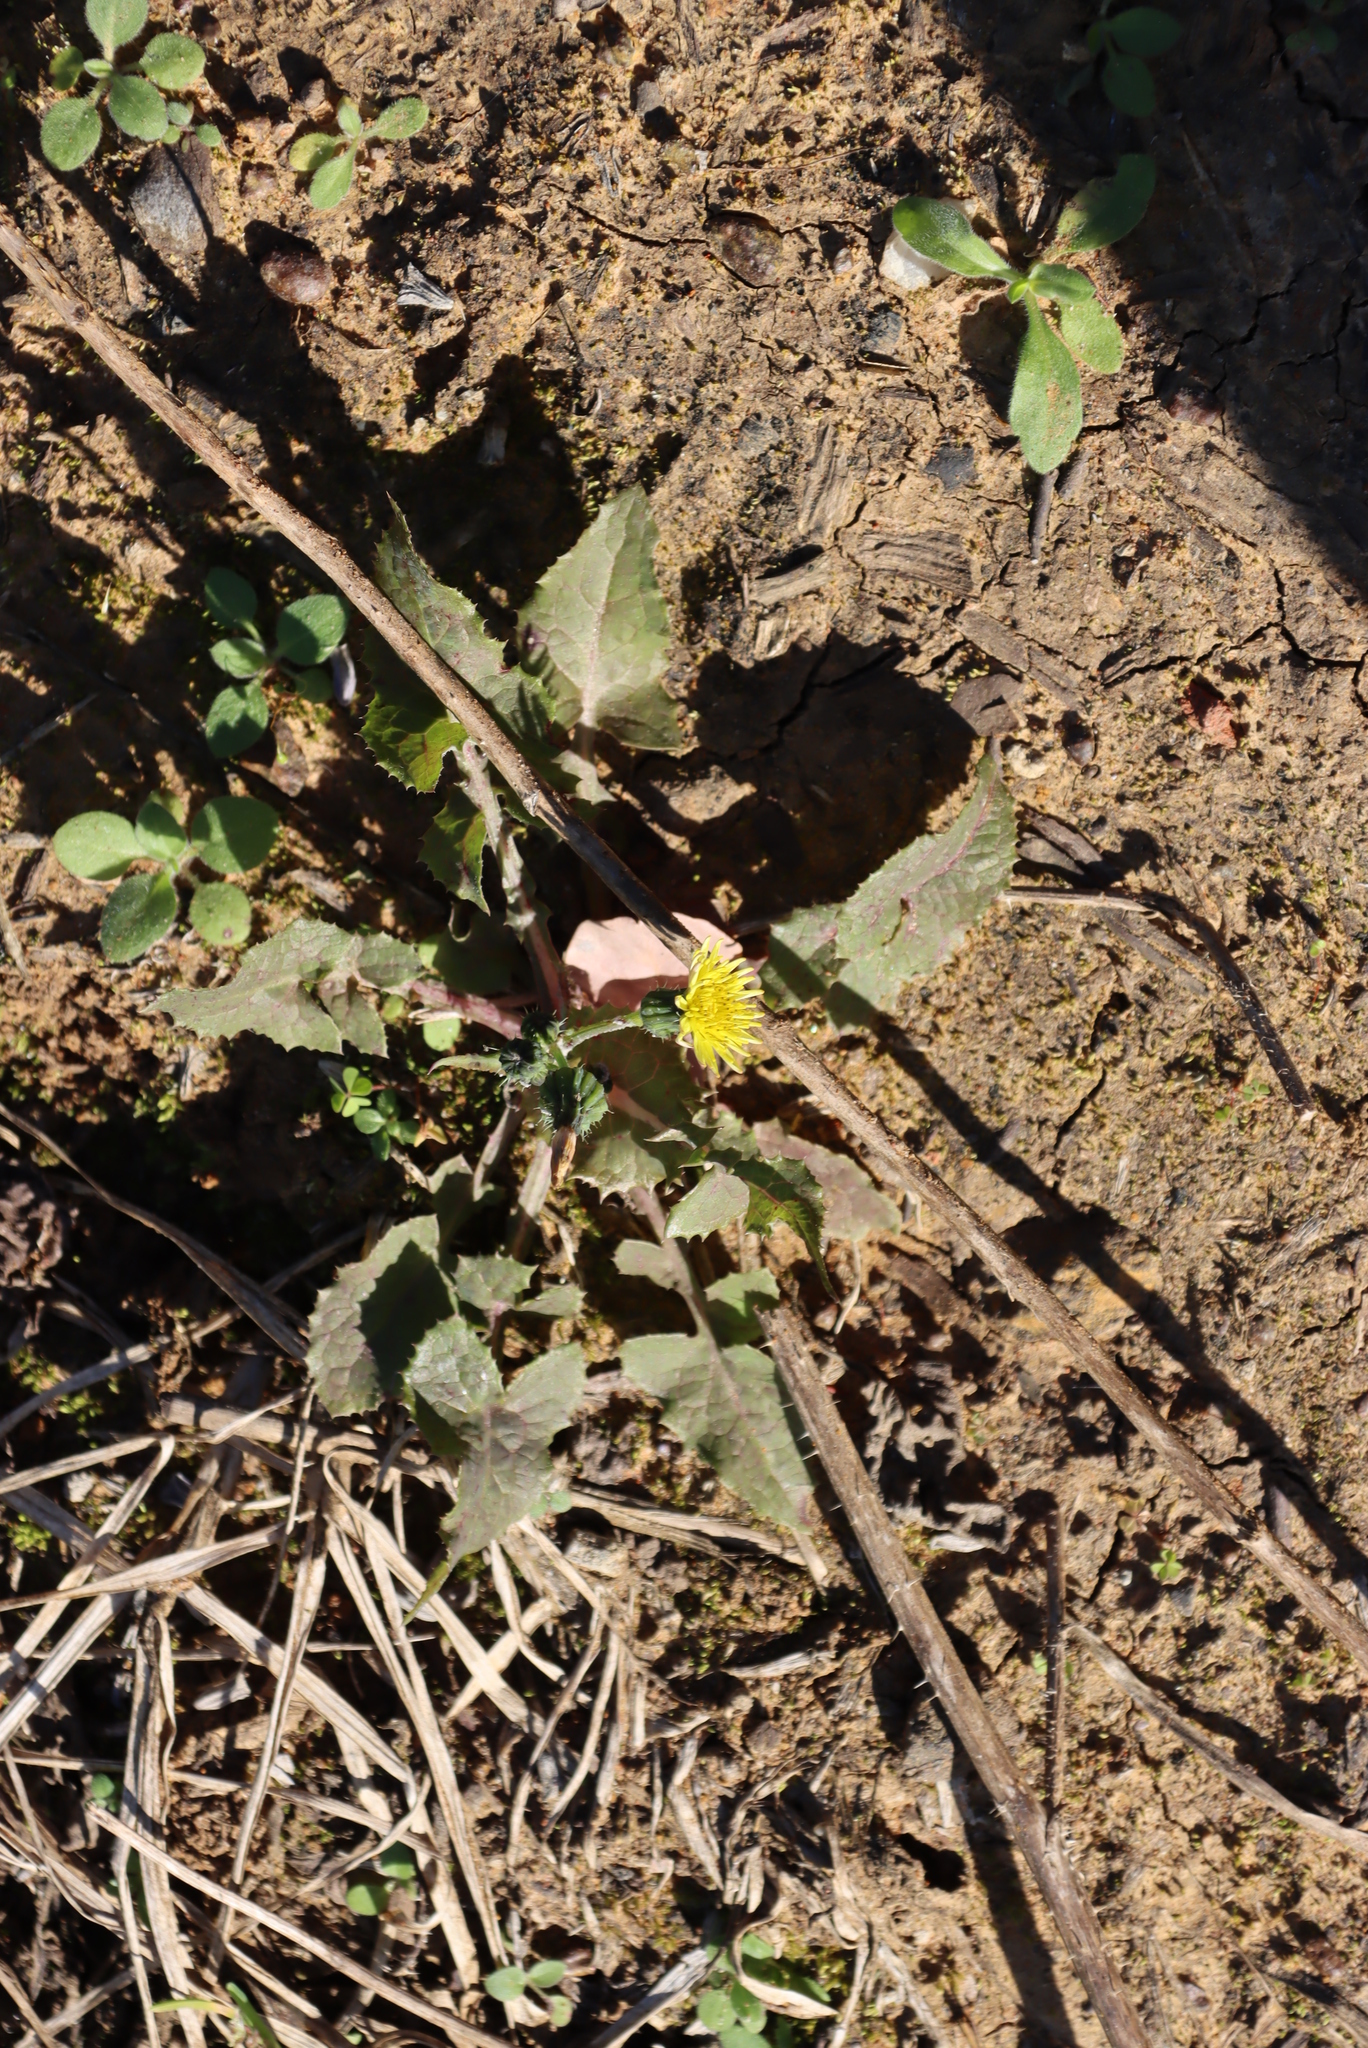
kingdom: Plantae
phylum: Tracheophyta
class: Magnoliopsida
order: Asterales
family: Asteraceae
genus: Sonchus
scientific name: Sonchus asper
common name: Prickly sow-thistle
